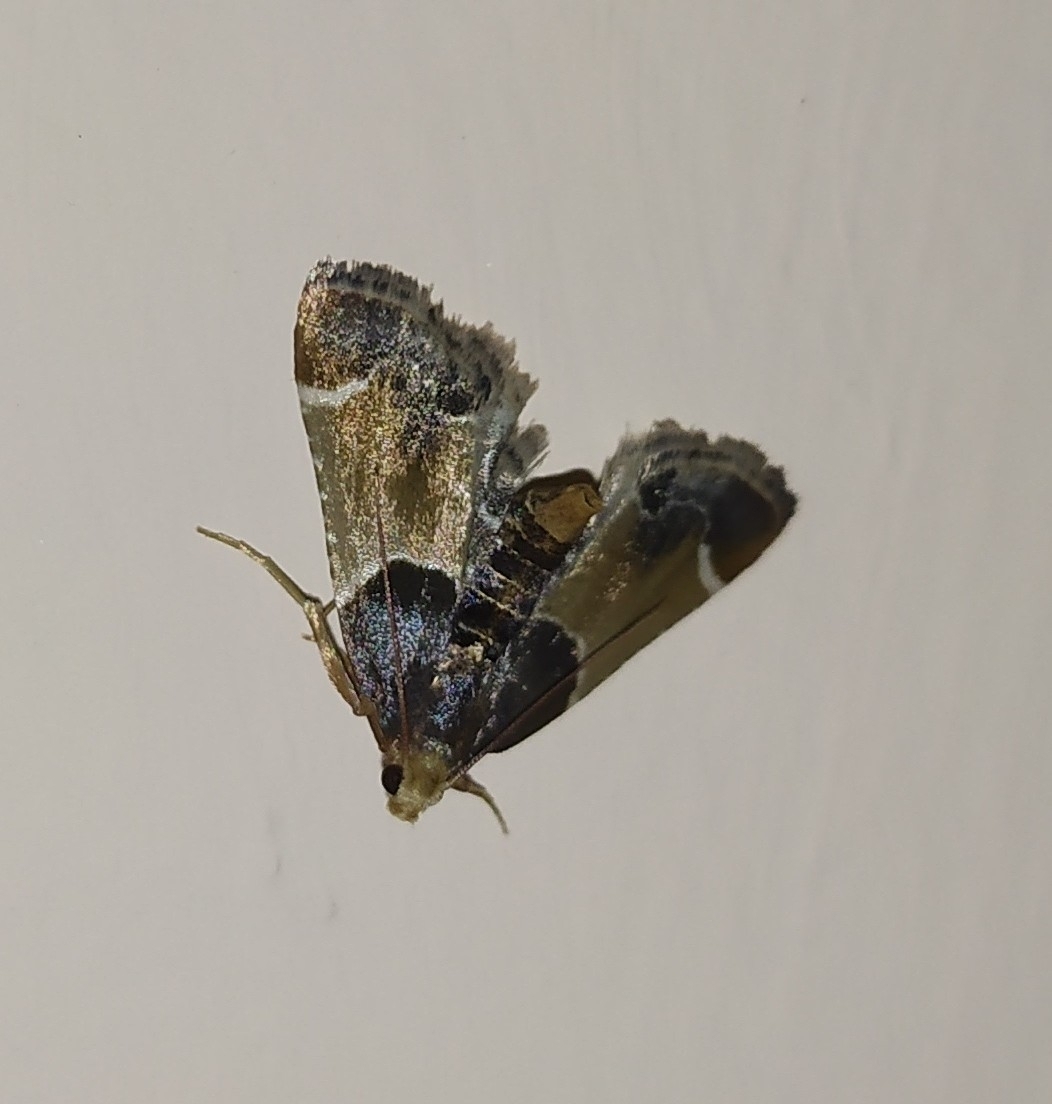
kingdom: Animalia
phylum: Arthropoda
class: Insecta
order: Lepidoptera
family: Pyralidae
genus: Pyralis
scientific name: Pyralis farinalis
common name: Meal moth
